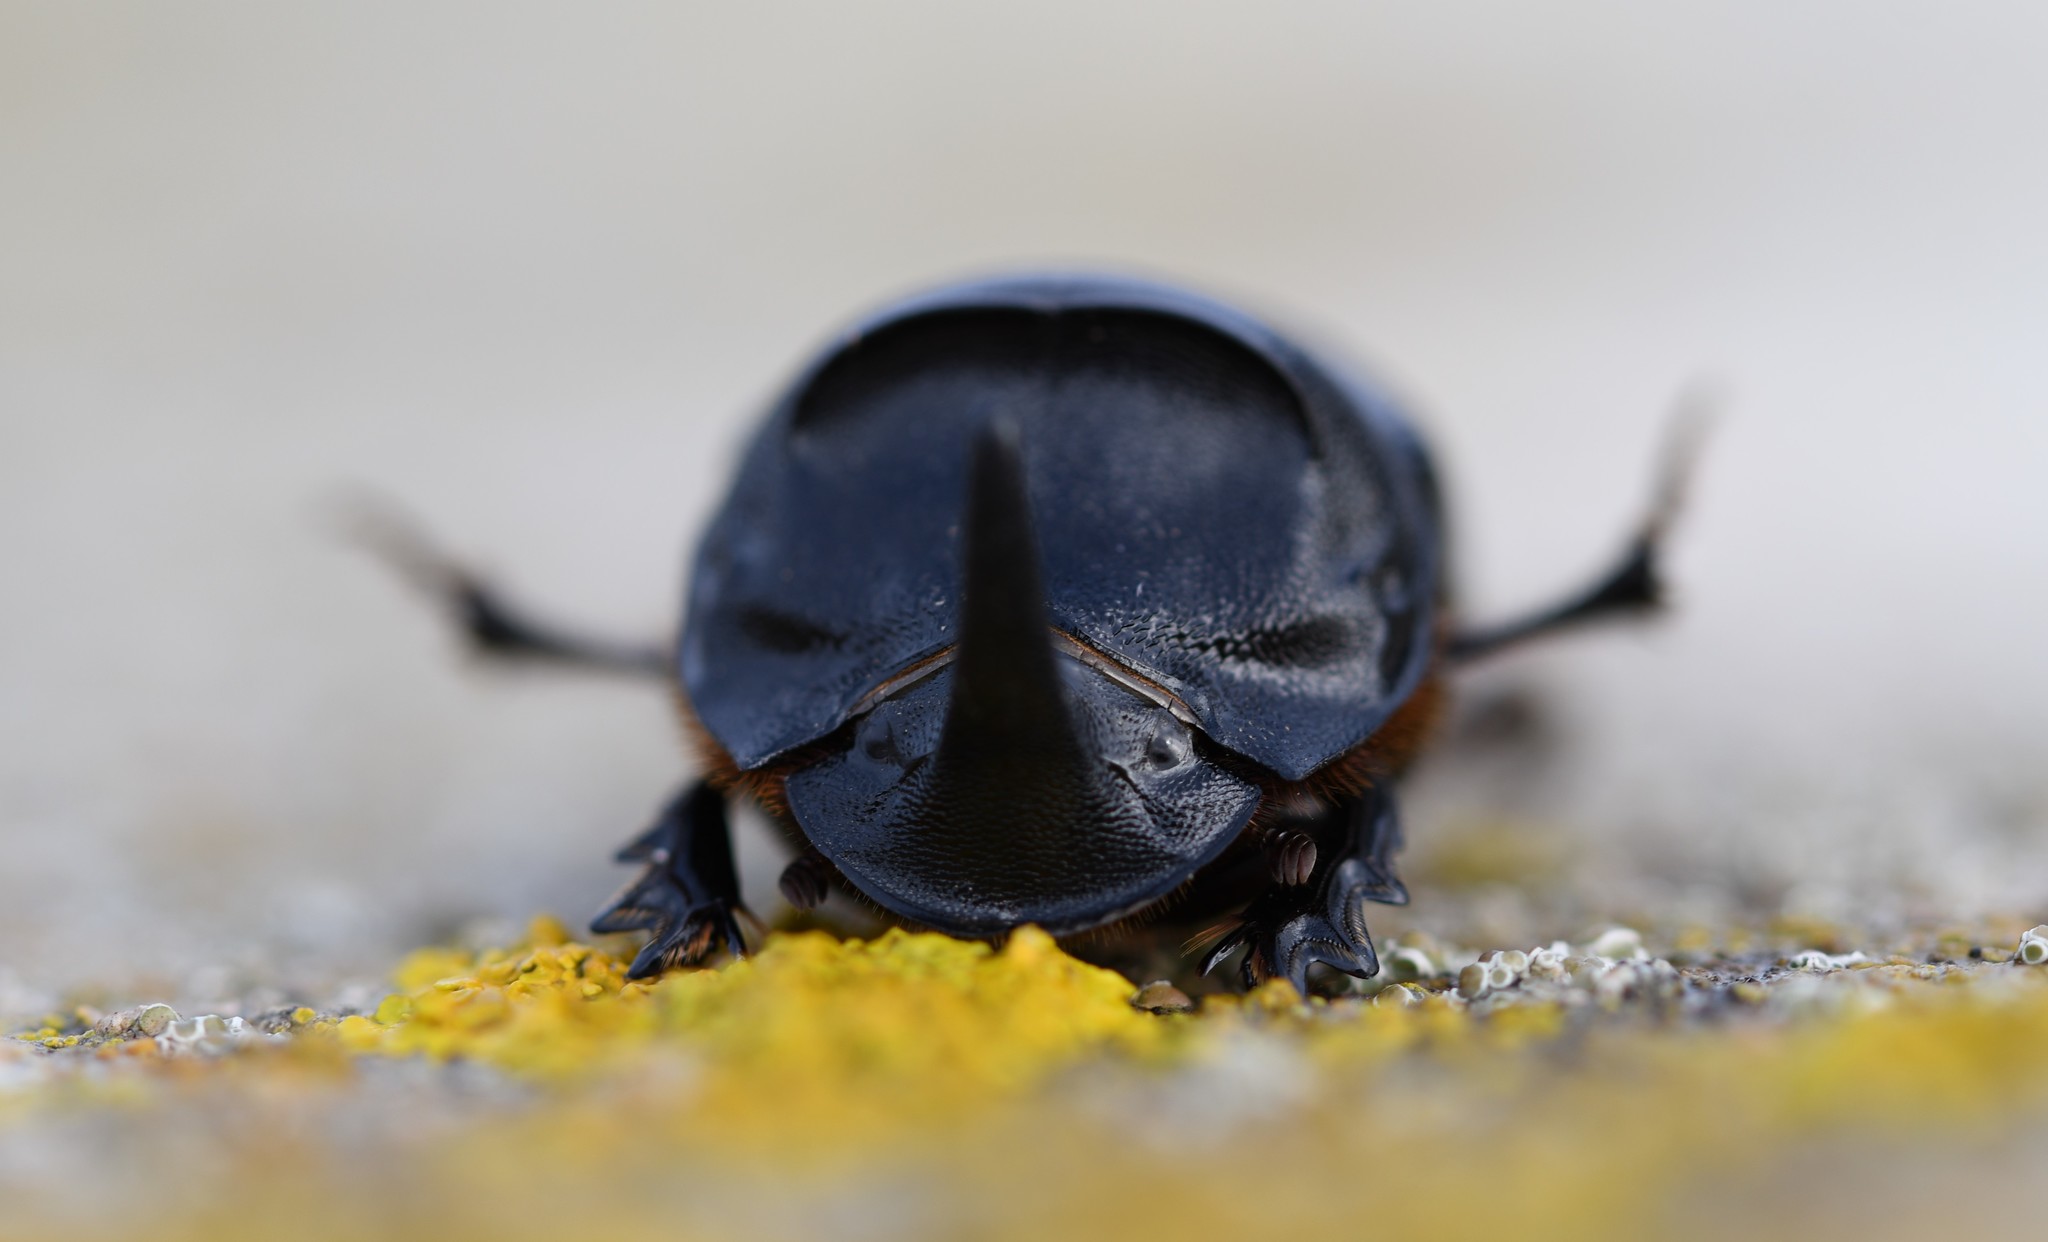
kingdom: Animalia
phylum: Arthropoda
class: Insecta
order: Coleoptera
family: Scarabaeidae
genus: Copris
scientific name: Copris hispanus
